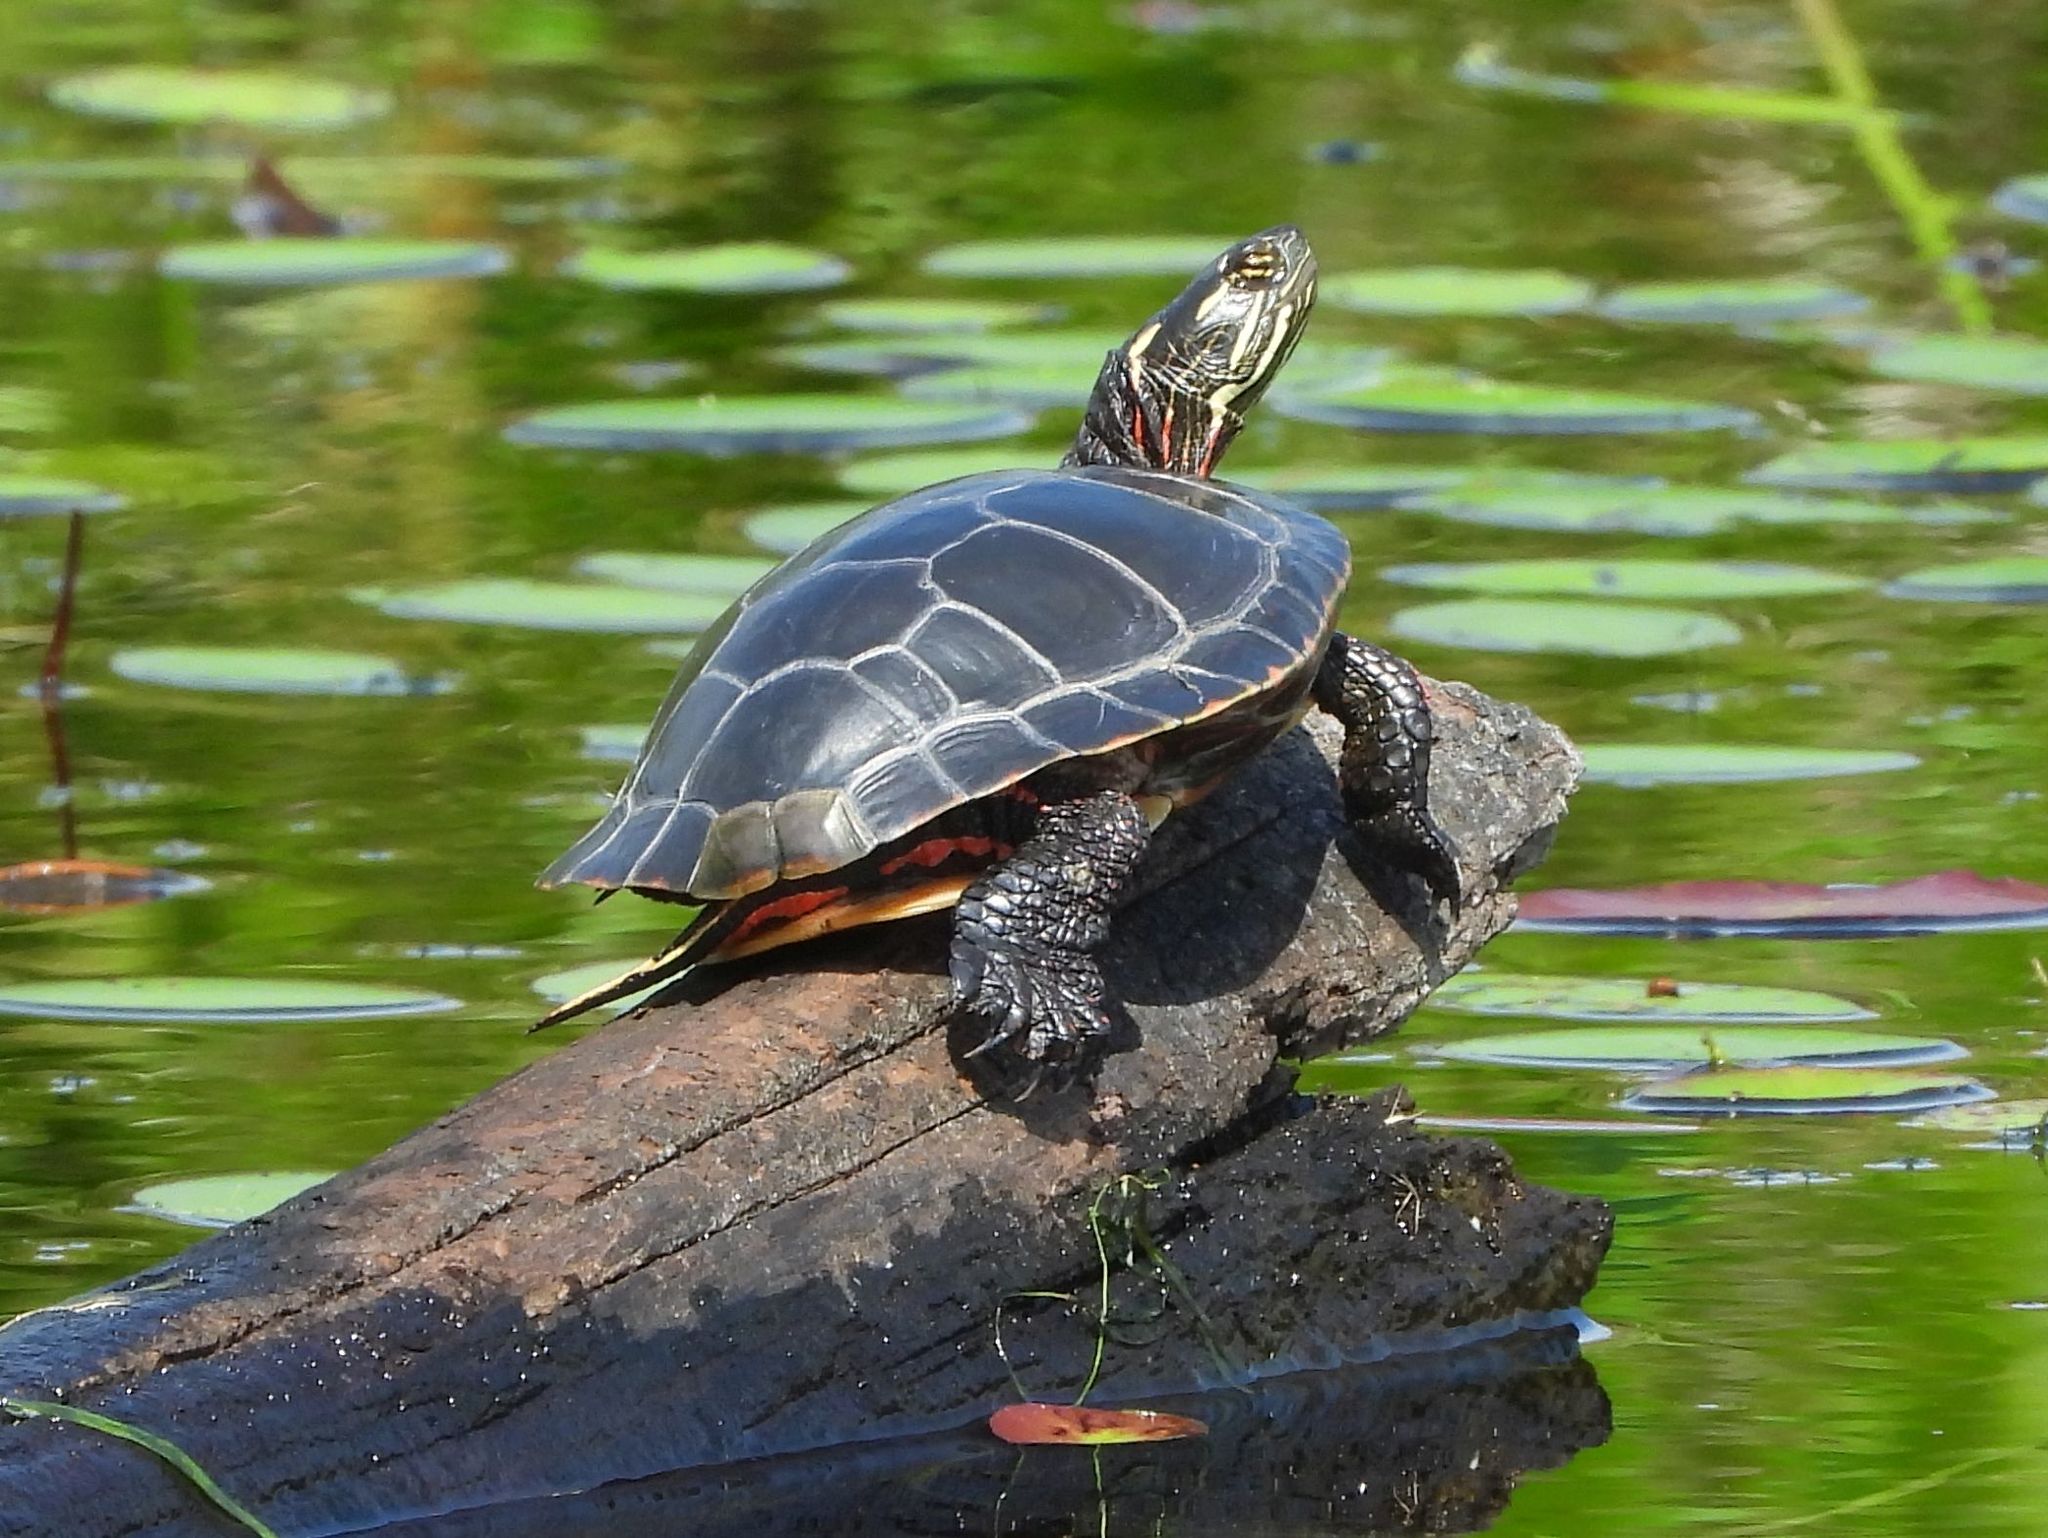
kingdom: Animalia
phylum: Chordata
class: Testudines
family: Emydidae
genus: Chrysemys
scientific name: Chrysemys picta
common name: Painted turtle
